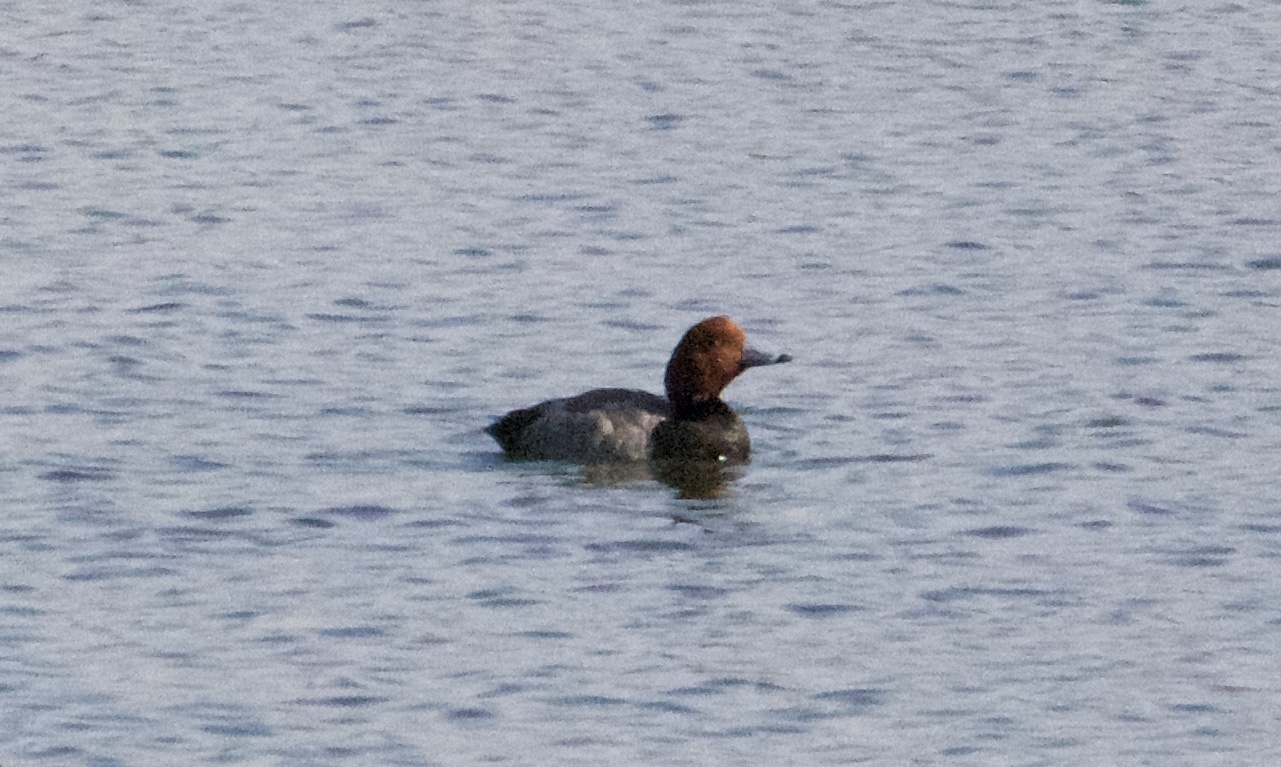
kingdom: Animalia
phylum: Chordata
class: Aves
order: Anseriformes
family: Anatidae
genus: Aythya
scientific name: Aythya americana
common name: Redhead
